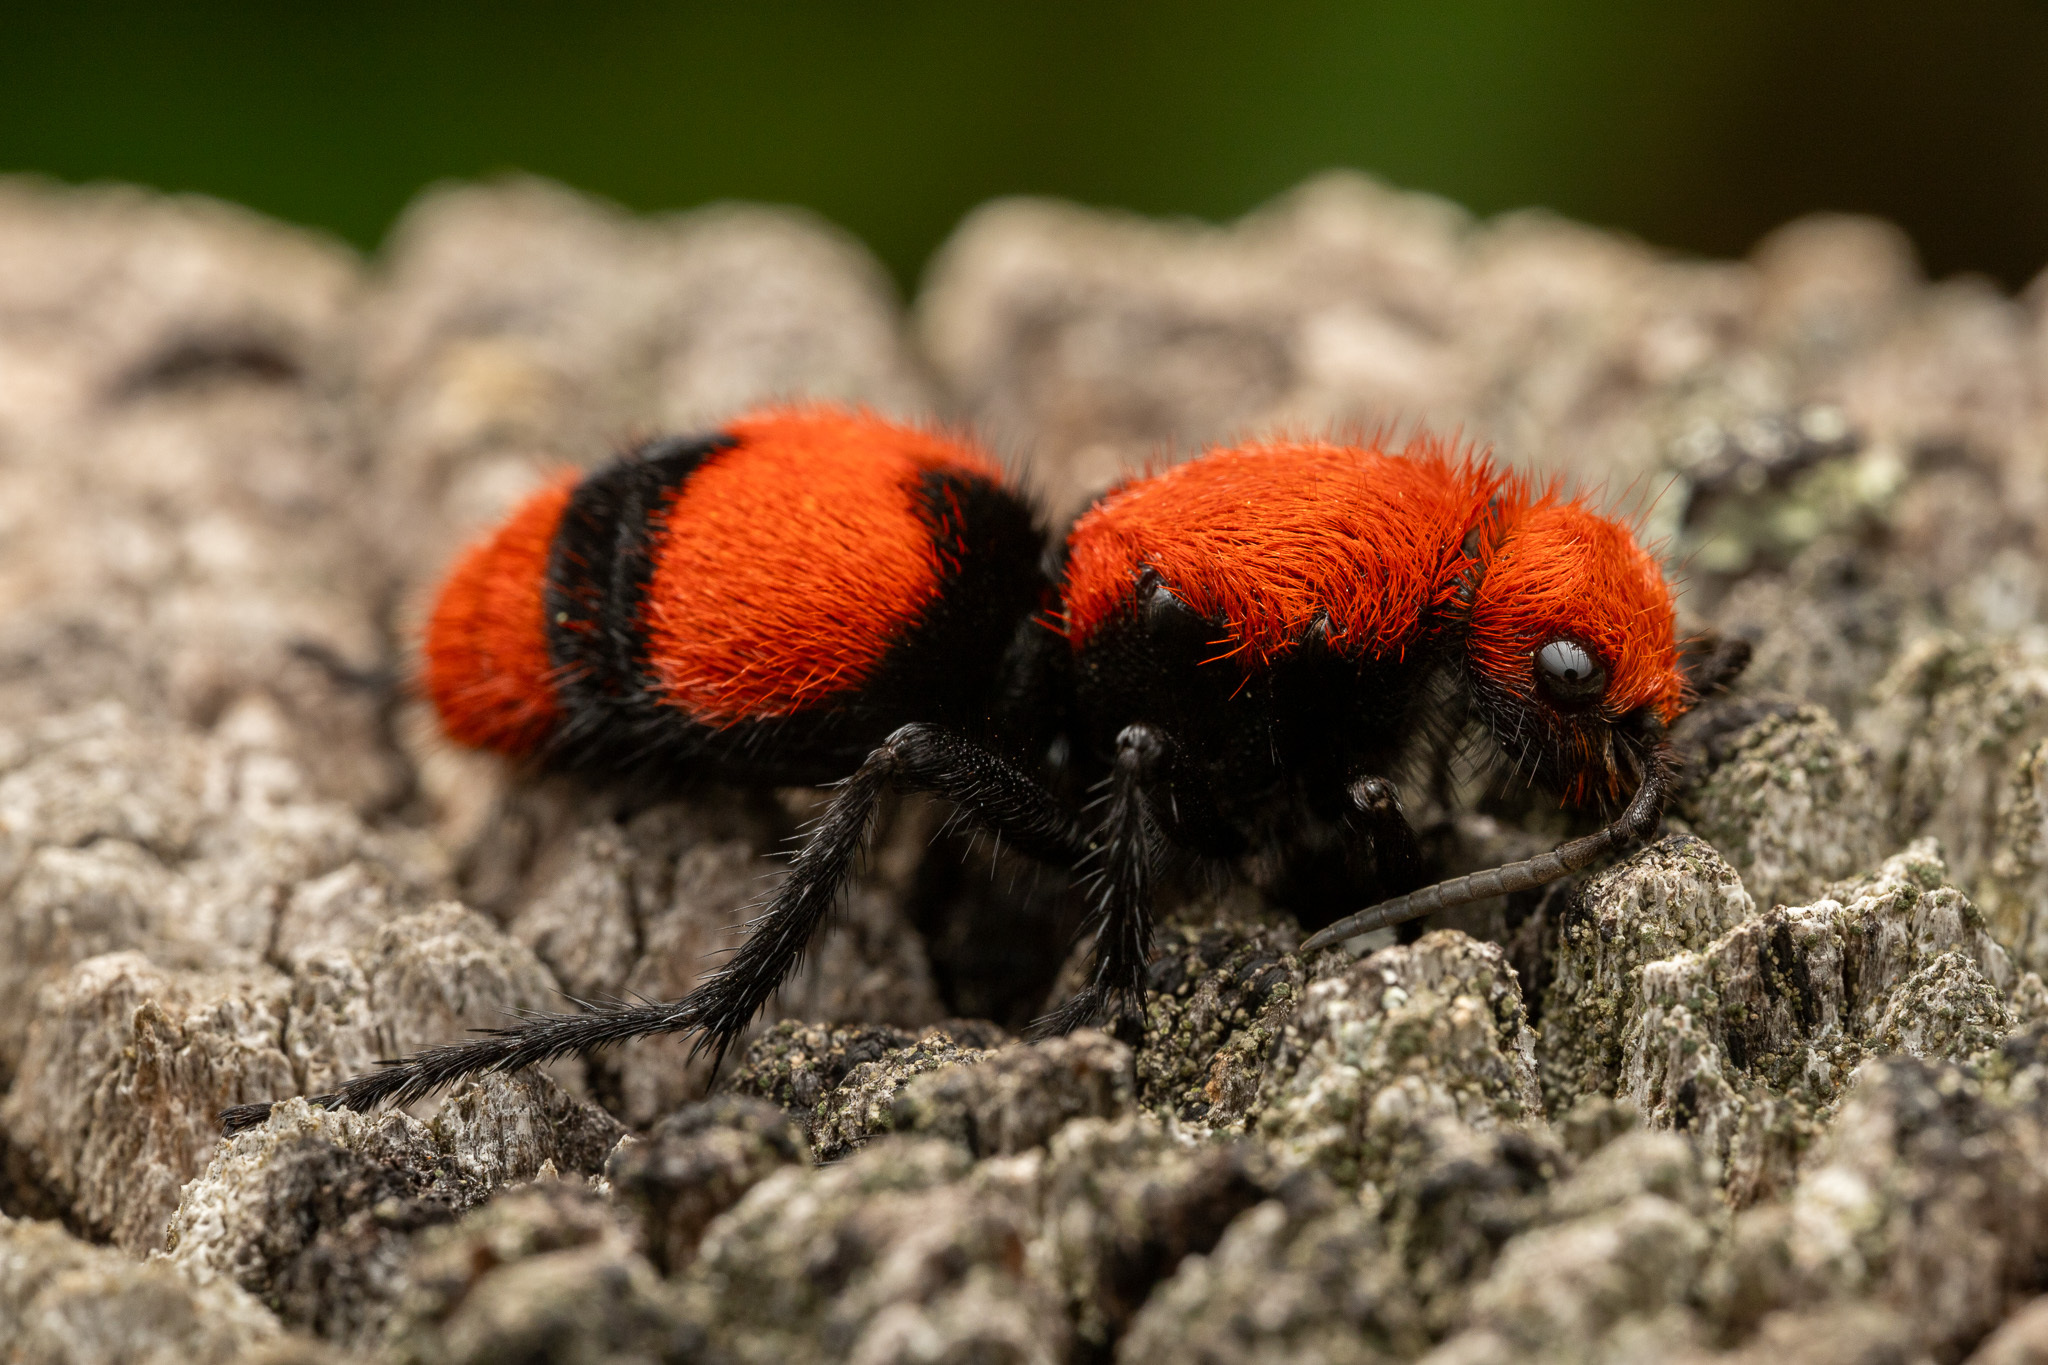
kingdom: Animalia
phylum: Arthropoda
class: Insecta
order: Hymenoptera
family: Mutillidae
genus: Dasymutilla
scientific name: Dasymutilla occidentalis
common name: Common eastern velvet ant
